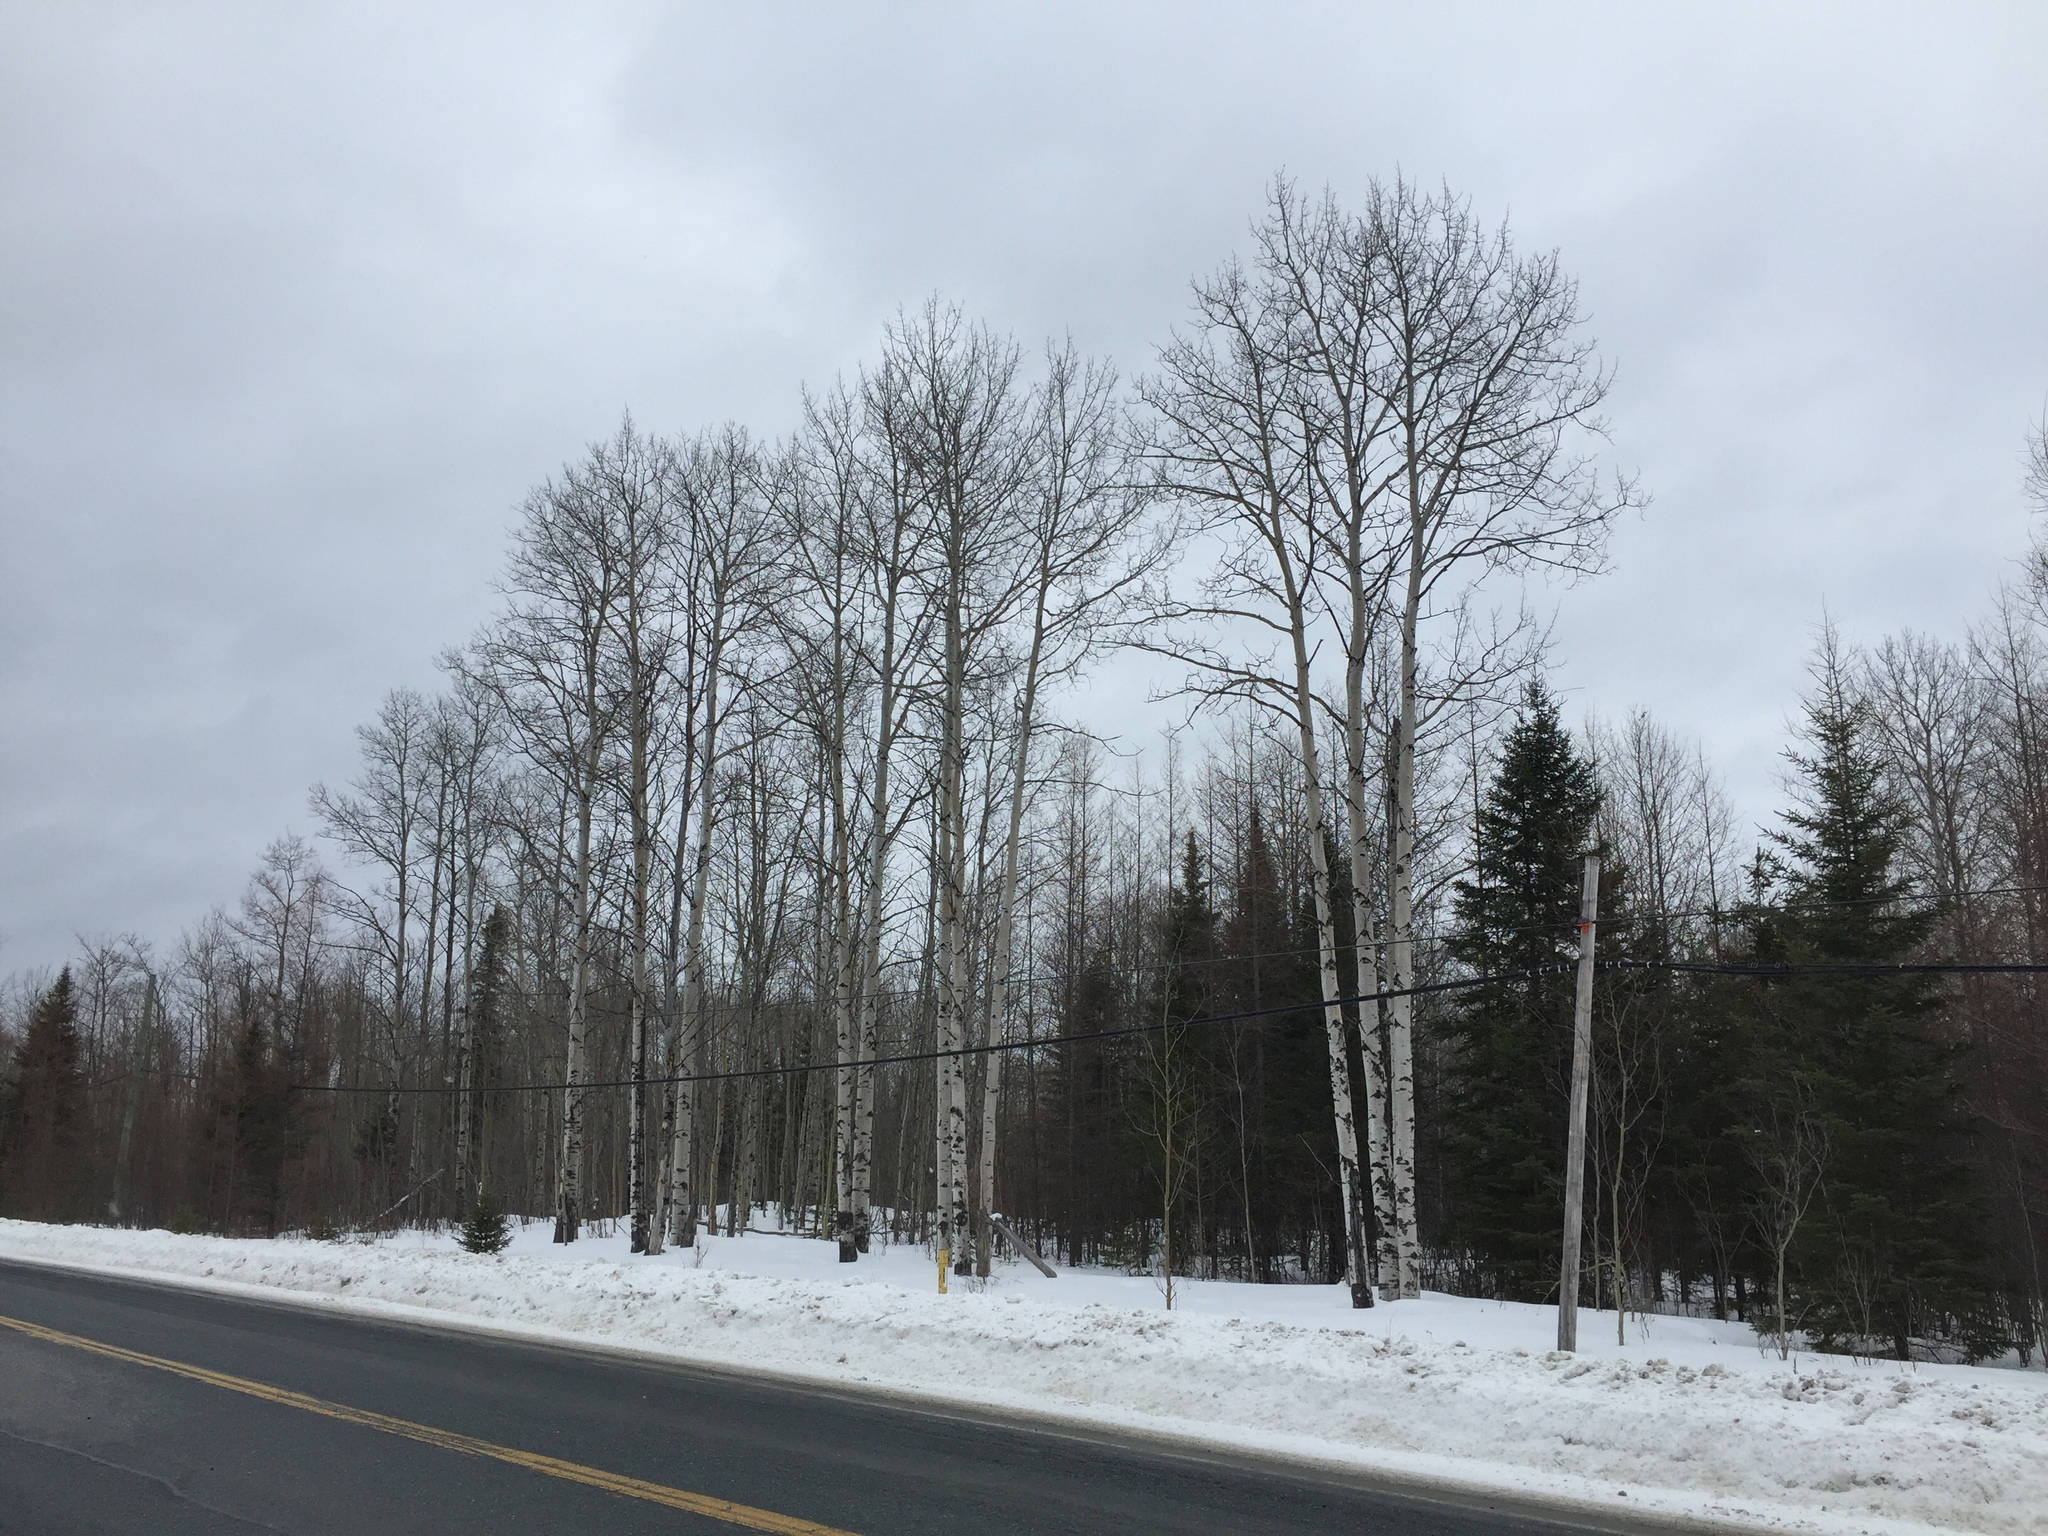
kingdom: Plantae
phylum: Tracheophyta
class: Magnoliopsida
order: Malpighiales
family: Salicaceae
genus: Populus
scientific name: Populus tremuloides
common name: Quaking aspen
